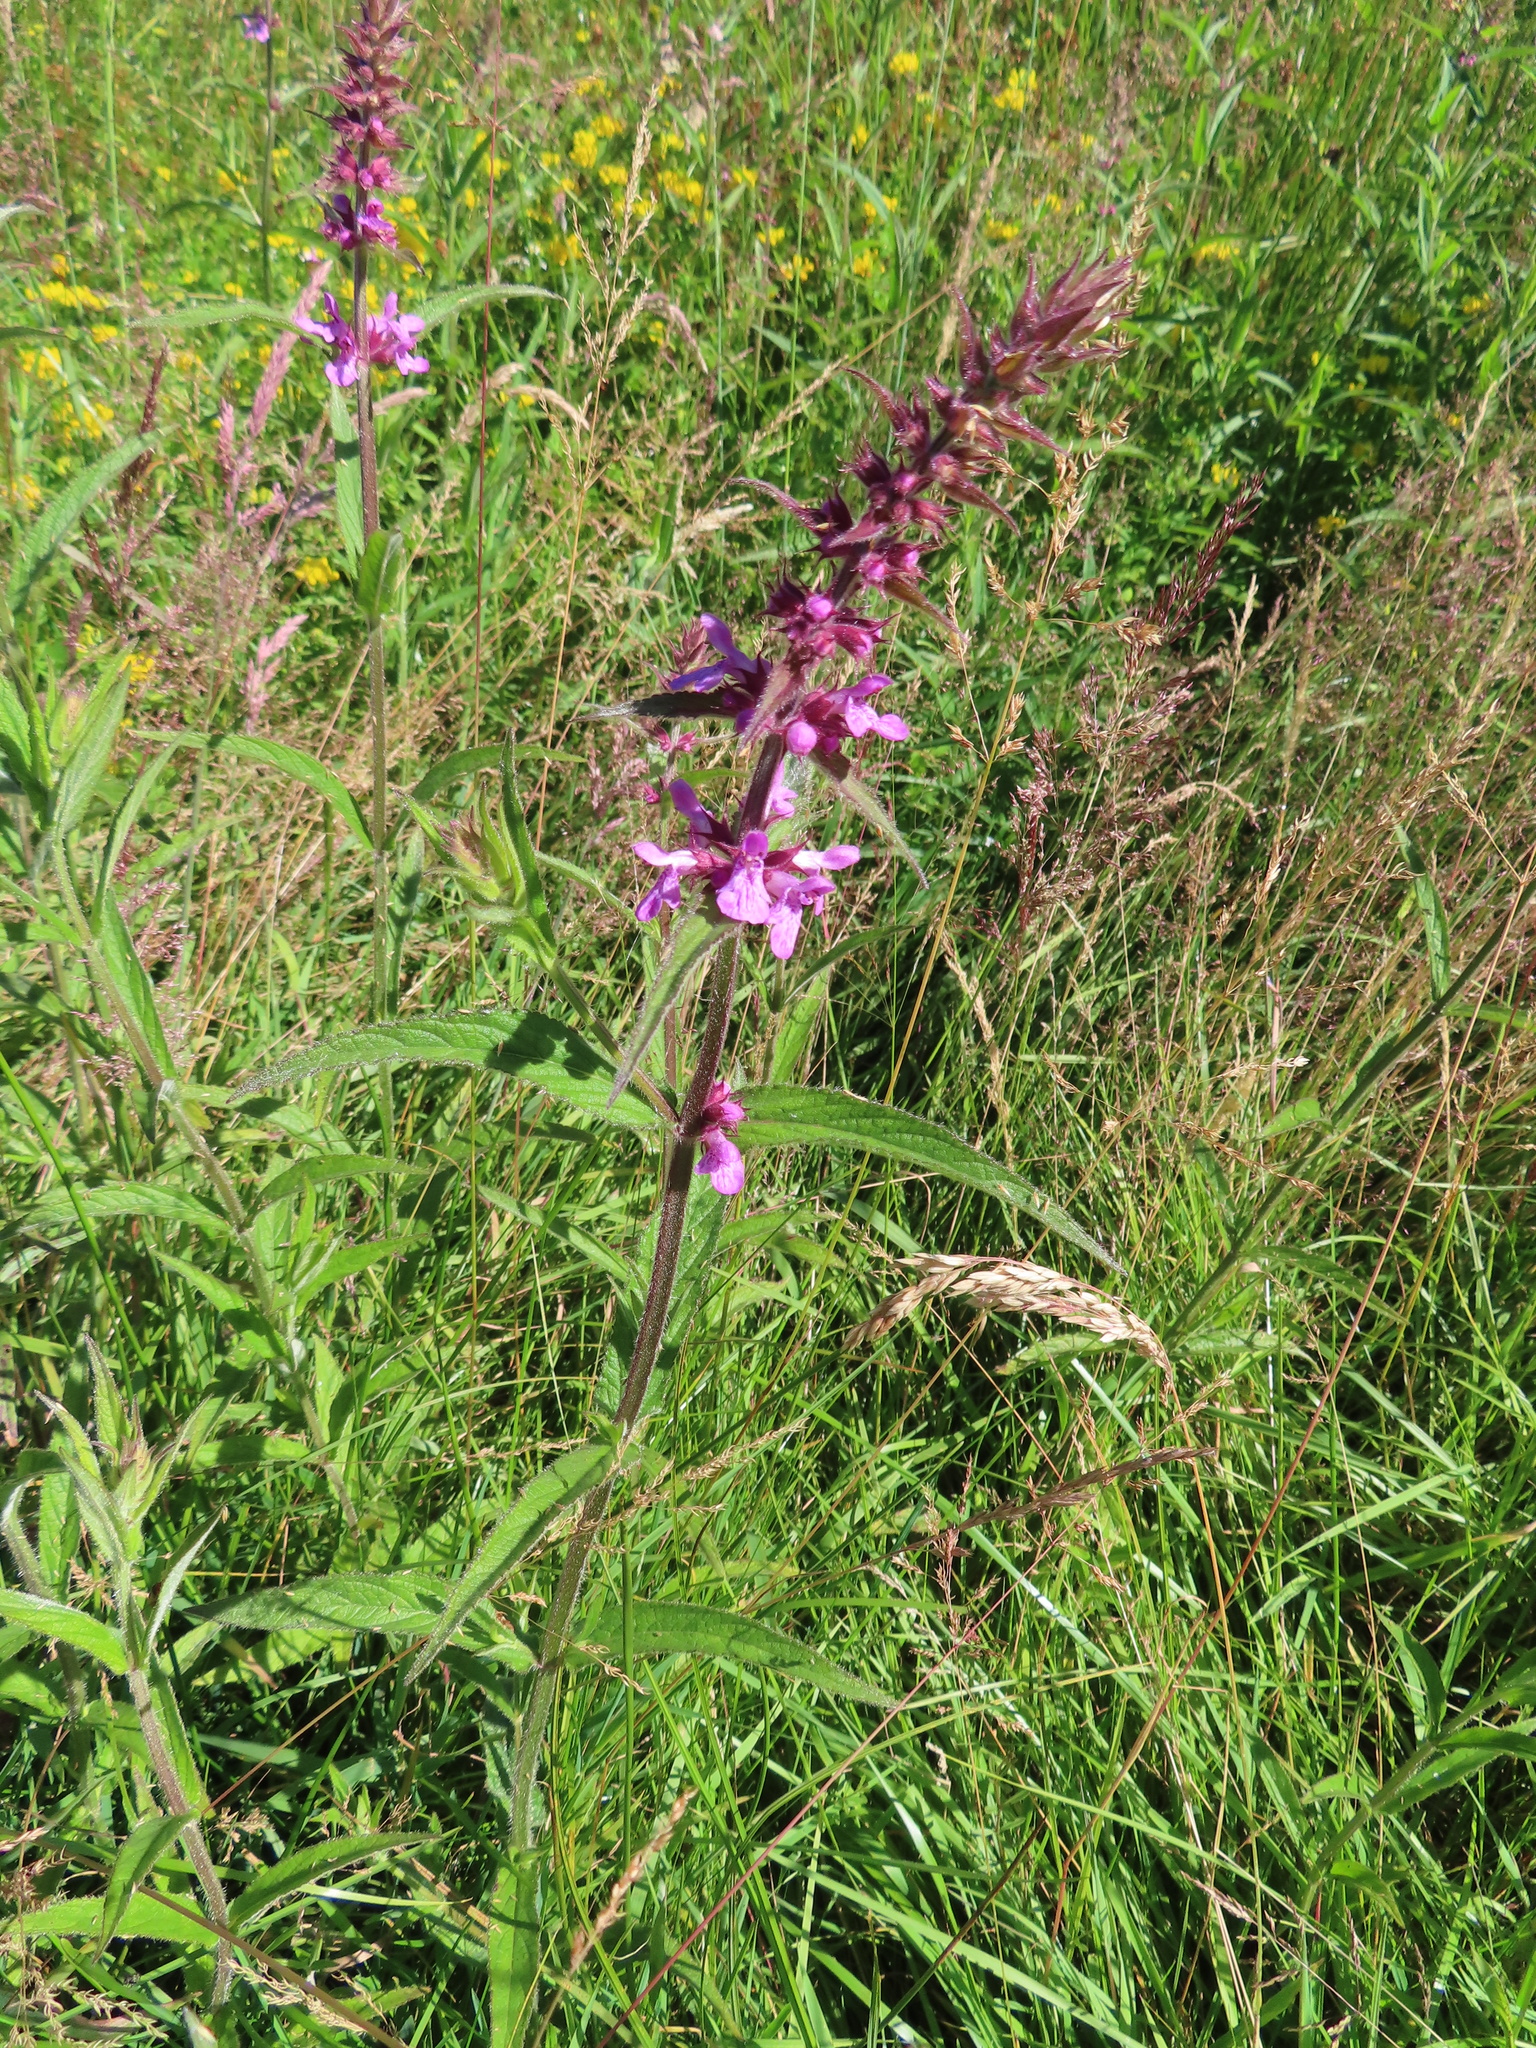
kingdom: Plantae
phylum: Tracheophyta
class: Magnoliopsida
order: Lamiales
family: Lamiaceae
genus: Stachys
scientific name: Stachys palustris
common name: Marsh woundwort
